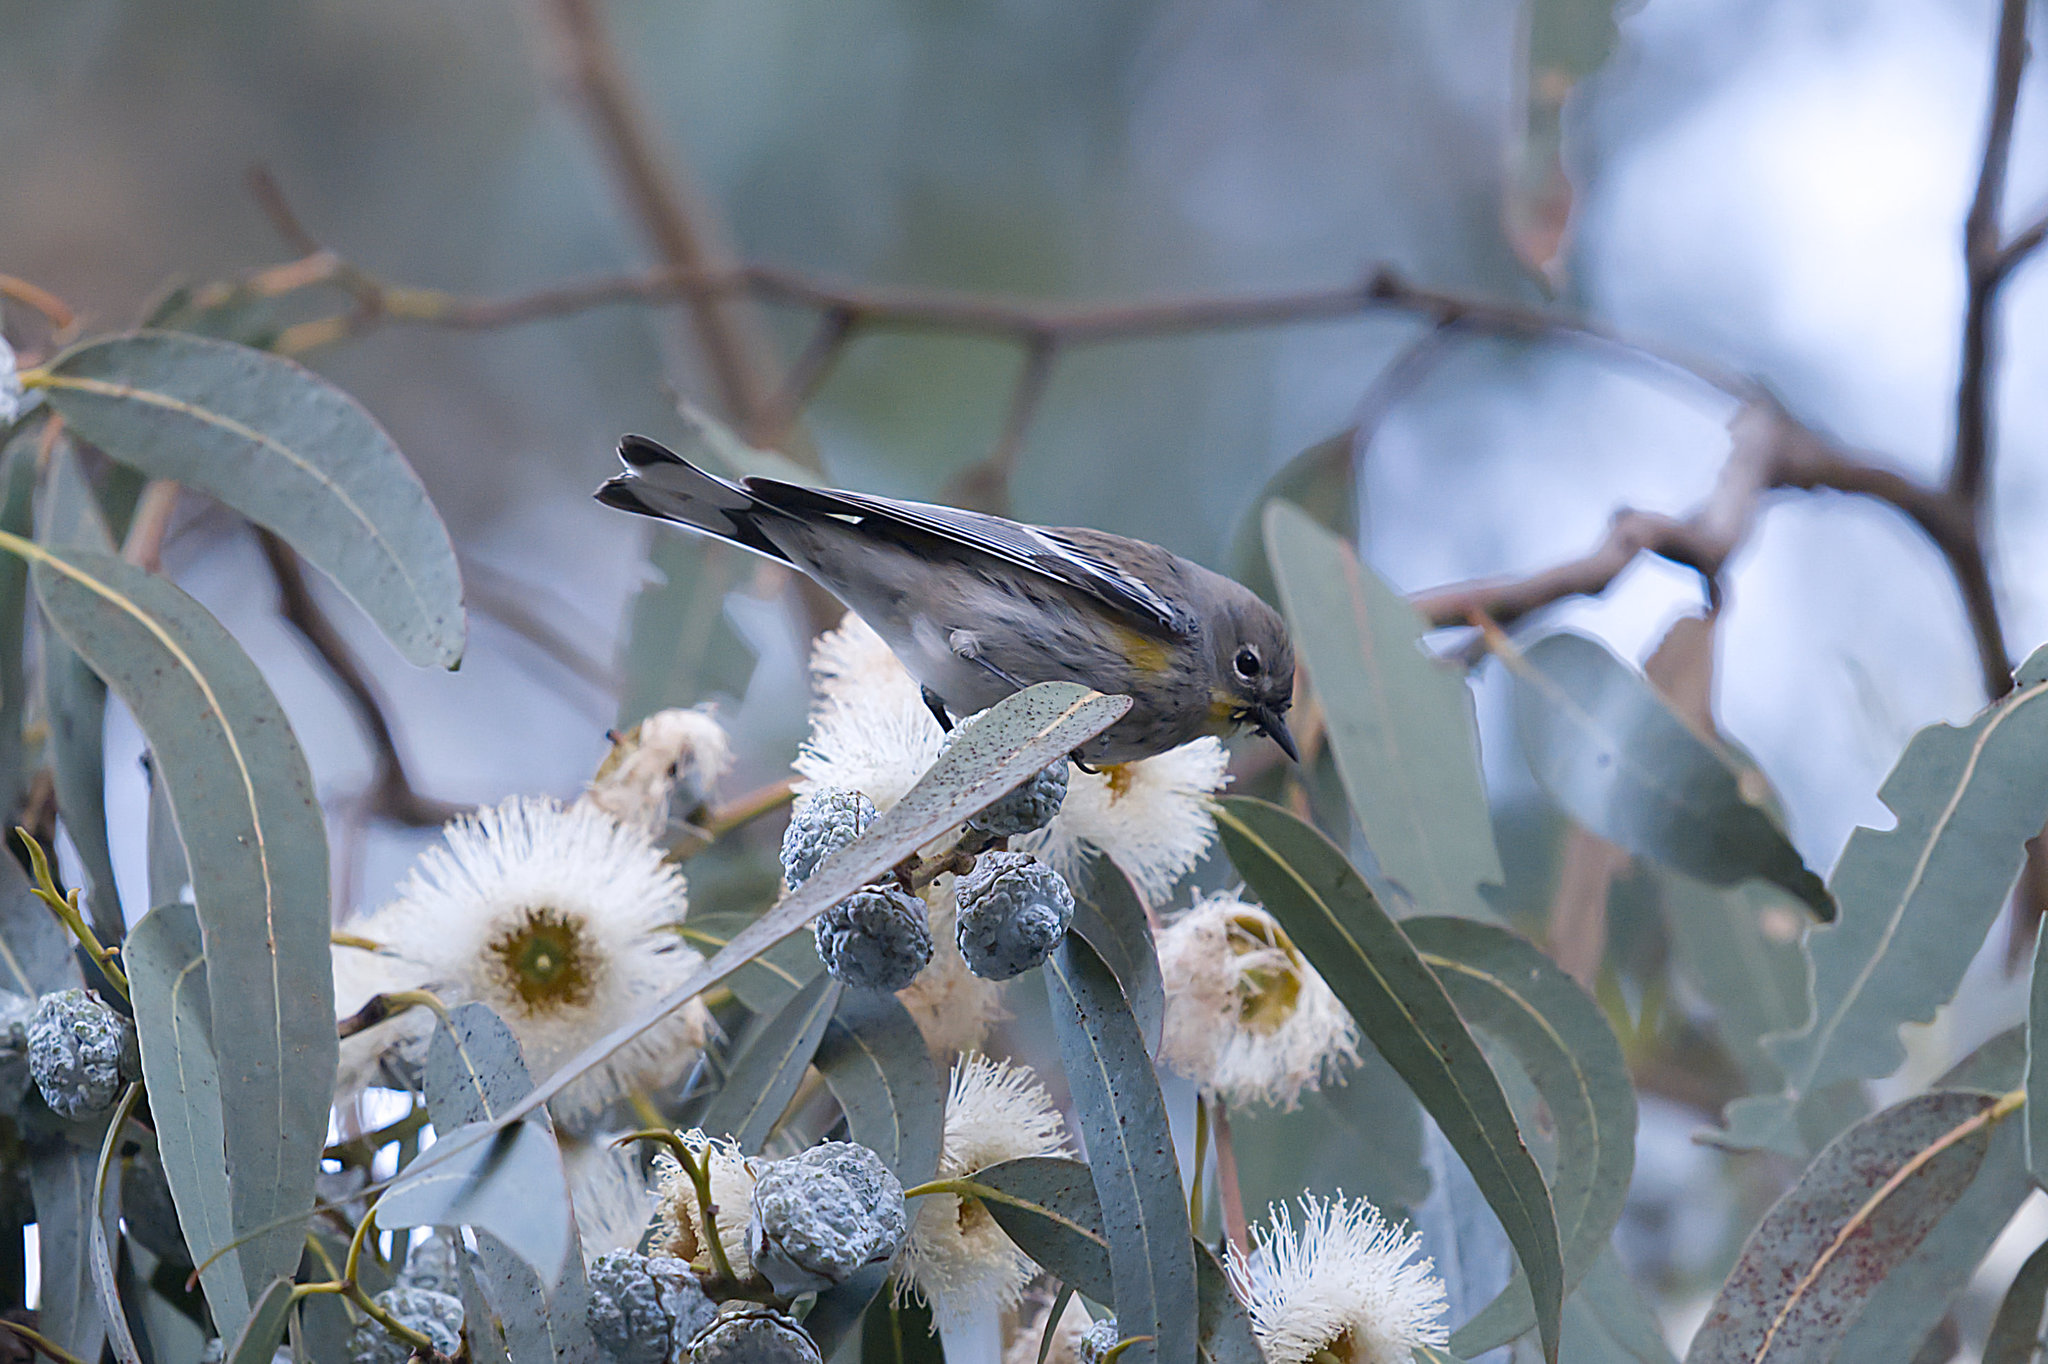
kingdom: Animalia
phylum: Chordata
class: Aves
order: Passeriformes
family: Parulidae
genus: Setophaga
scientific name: Setophaga coronata
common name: Myrtle warbler
